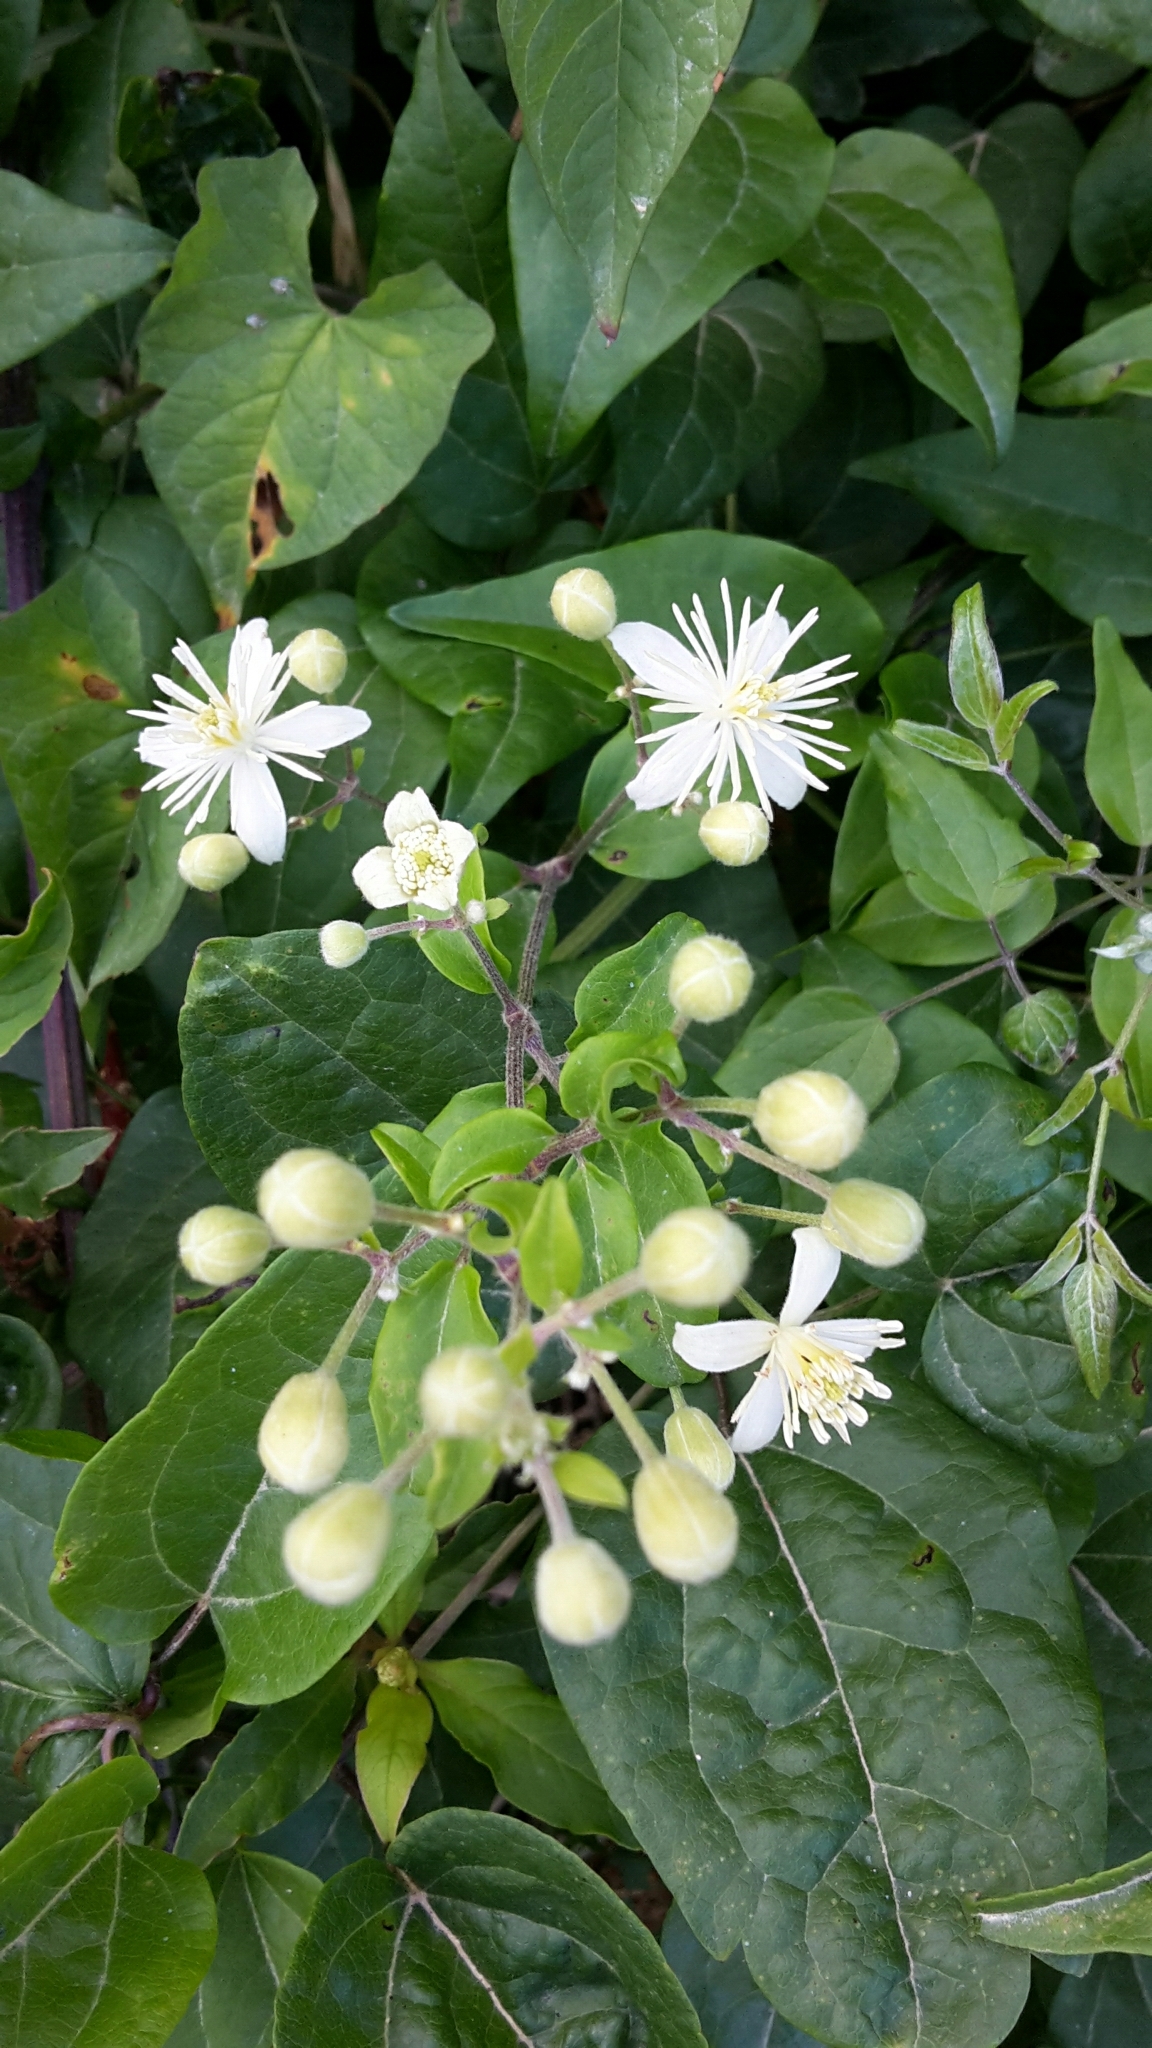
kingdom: Plantae
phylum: Tracheophyta
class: Magnoliopsida
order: Ranunculales
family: Ranunculaceae
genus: Clematis
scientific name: Clematis vitalba
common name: Evergreen clematis
